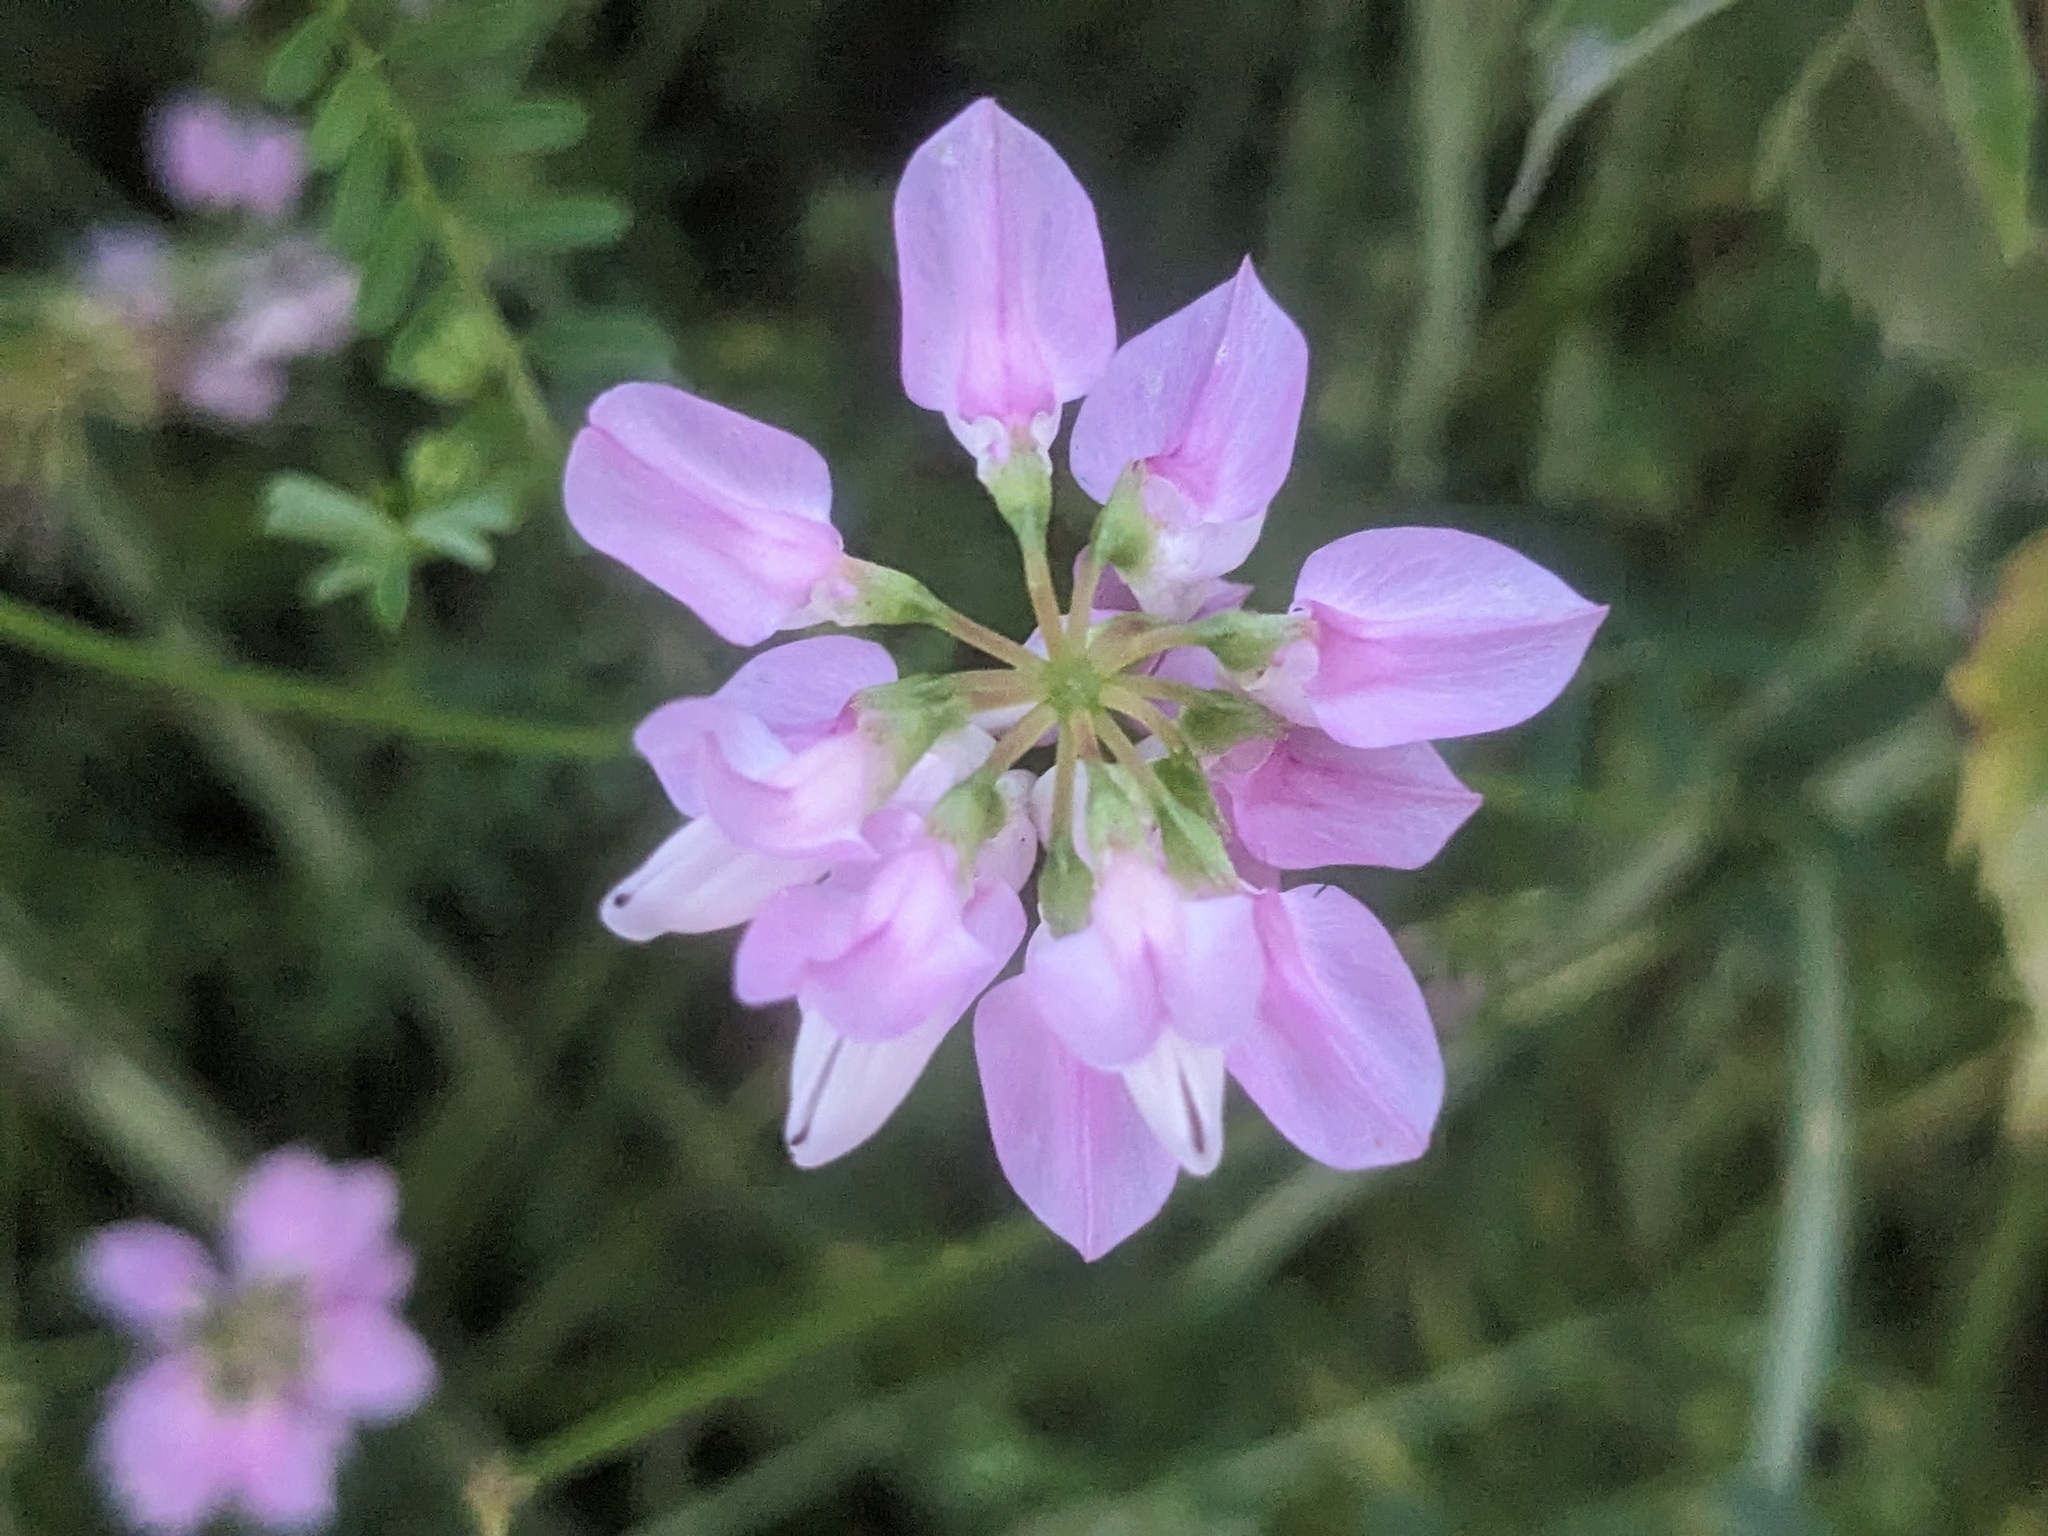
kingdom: Plantae
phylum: Tracheophyta
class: Magnoliopsida
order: Fabales
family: Fabaceae
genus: Coronilla
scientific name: Coronilla varia
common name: Crownvetch
